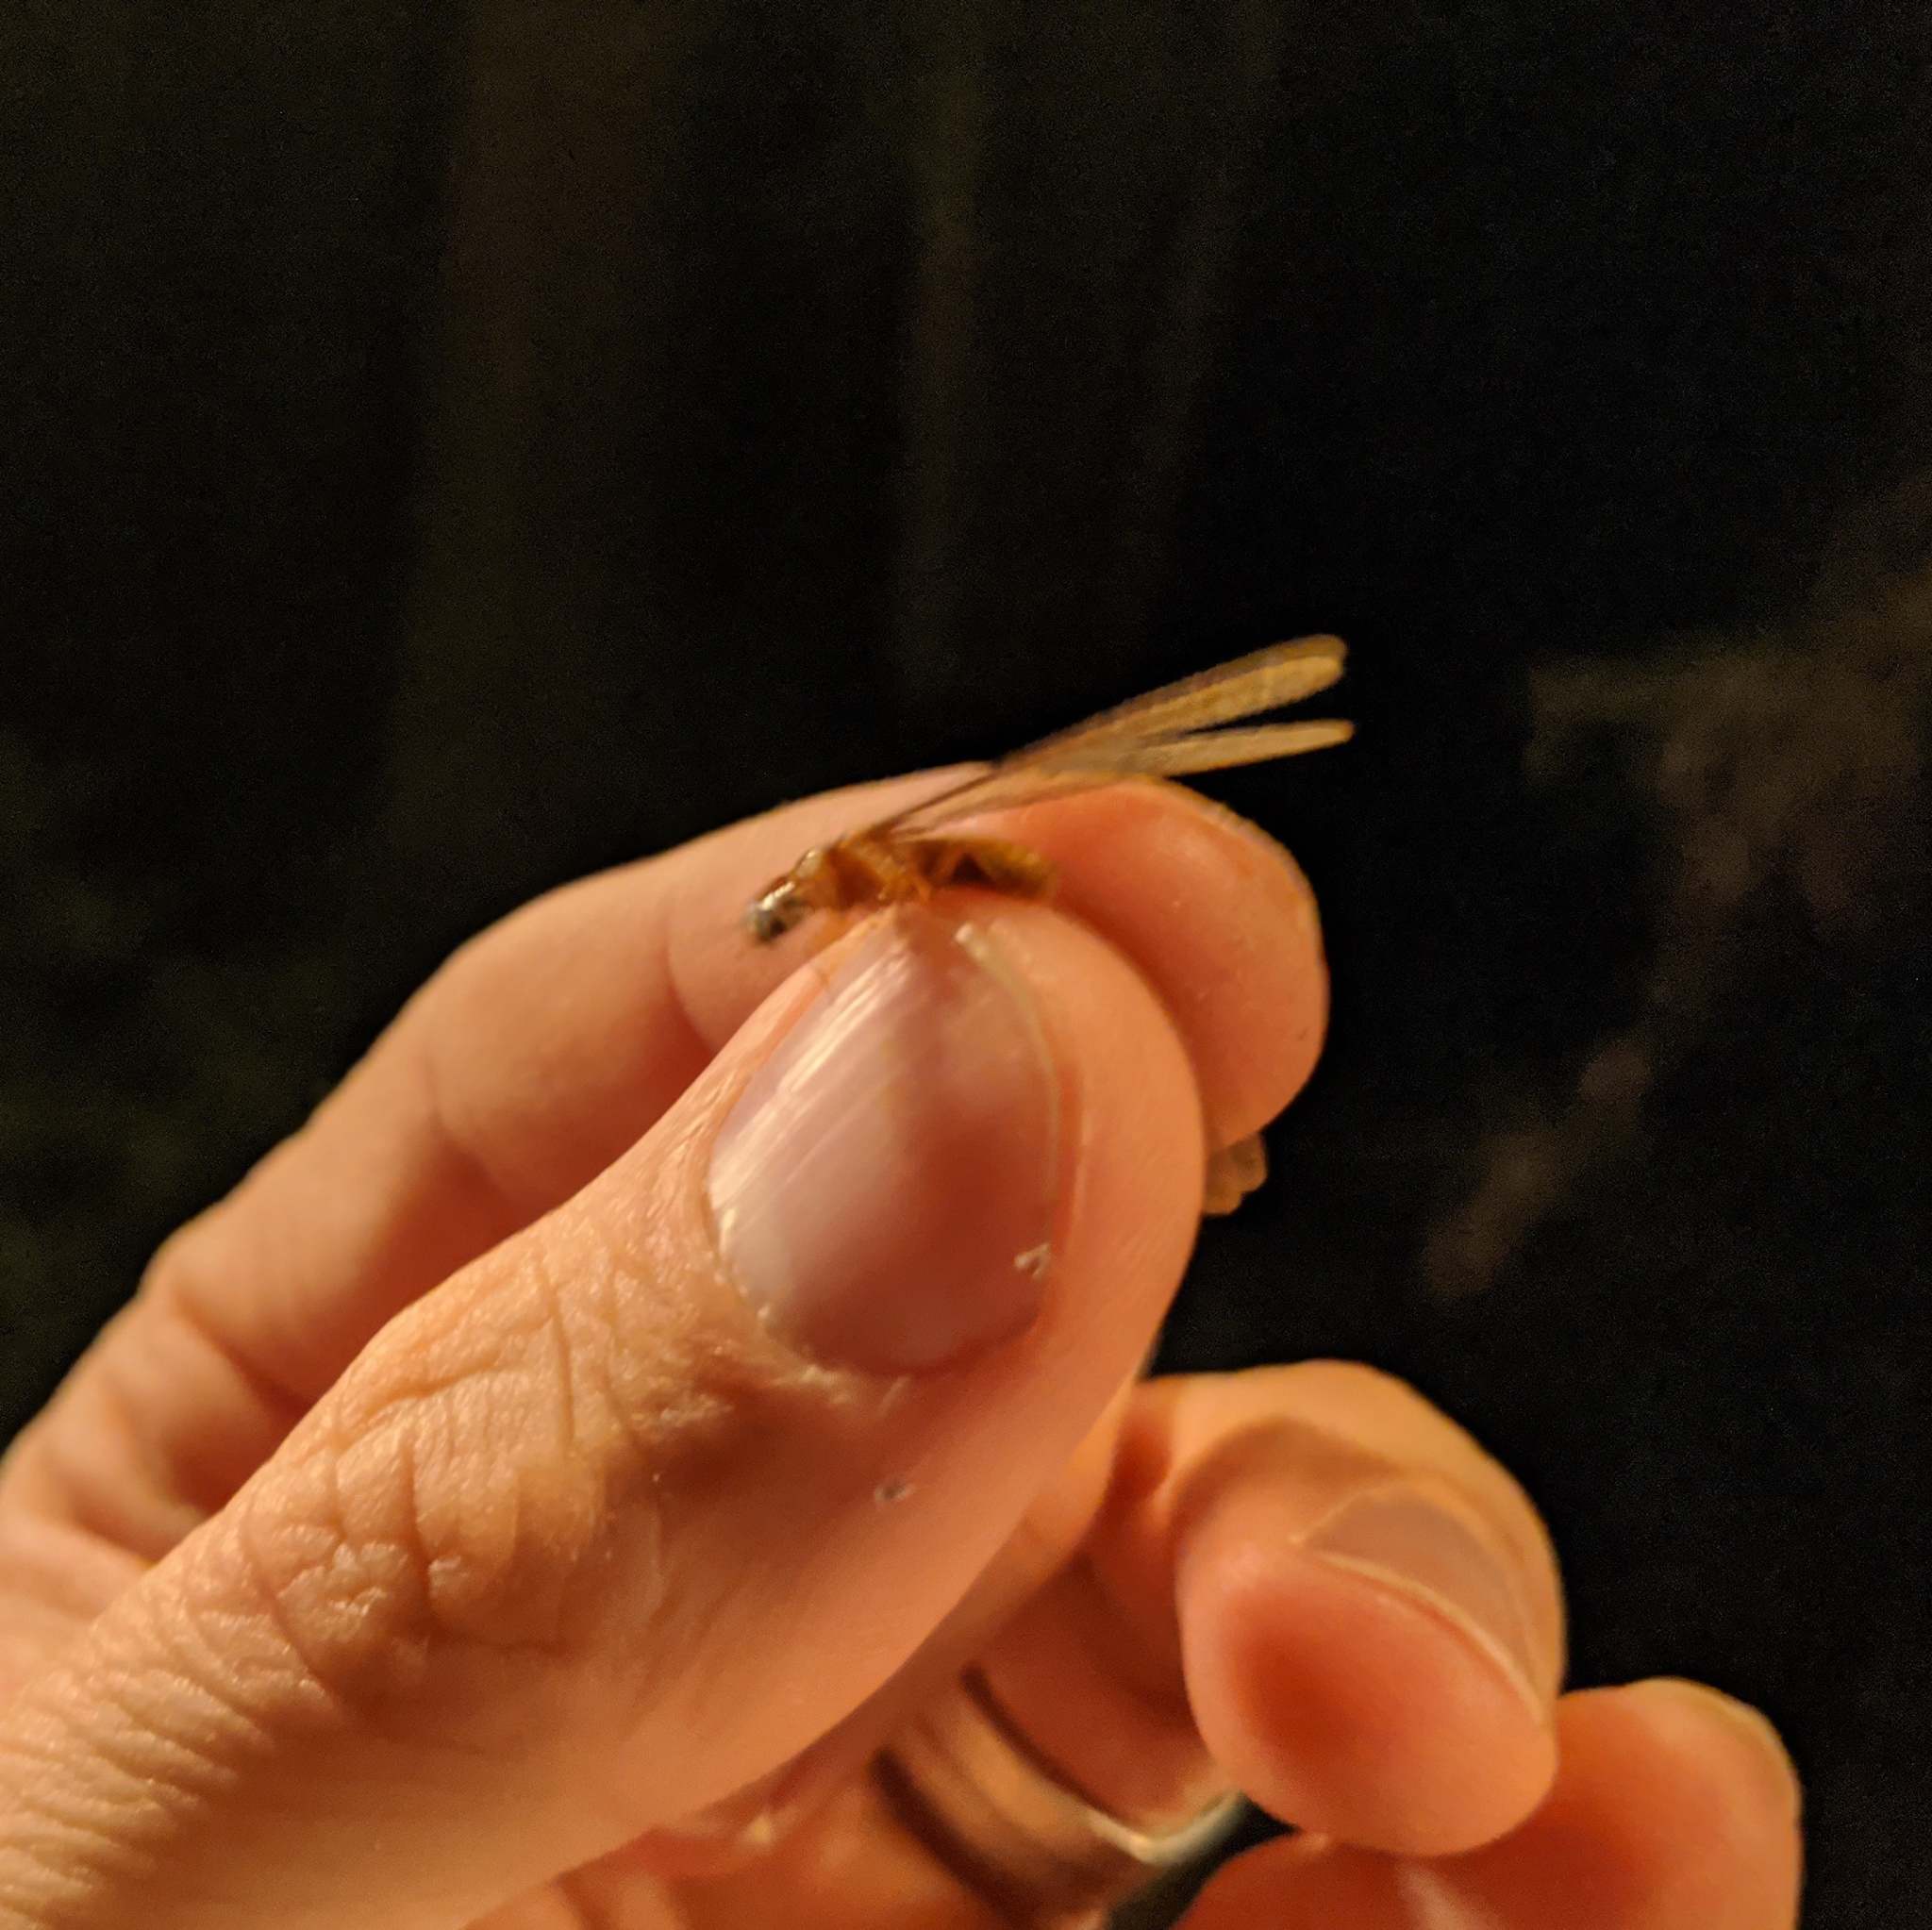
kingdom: Animalia
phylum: Arthropoda
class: Insecta
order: Blattodea
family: Archotermopsidae
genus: Zootermopsis
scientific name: Zootermopsis angusticollis
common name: Rottenwood termite
